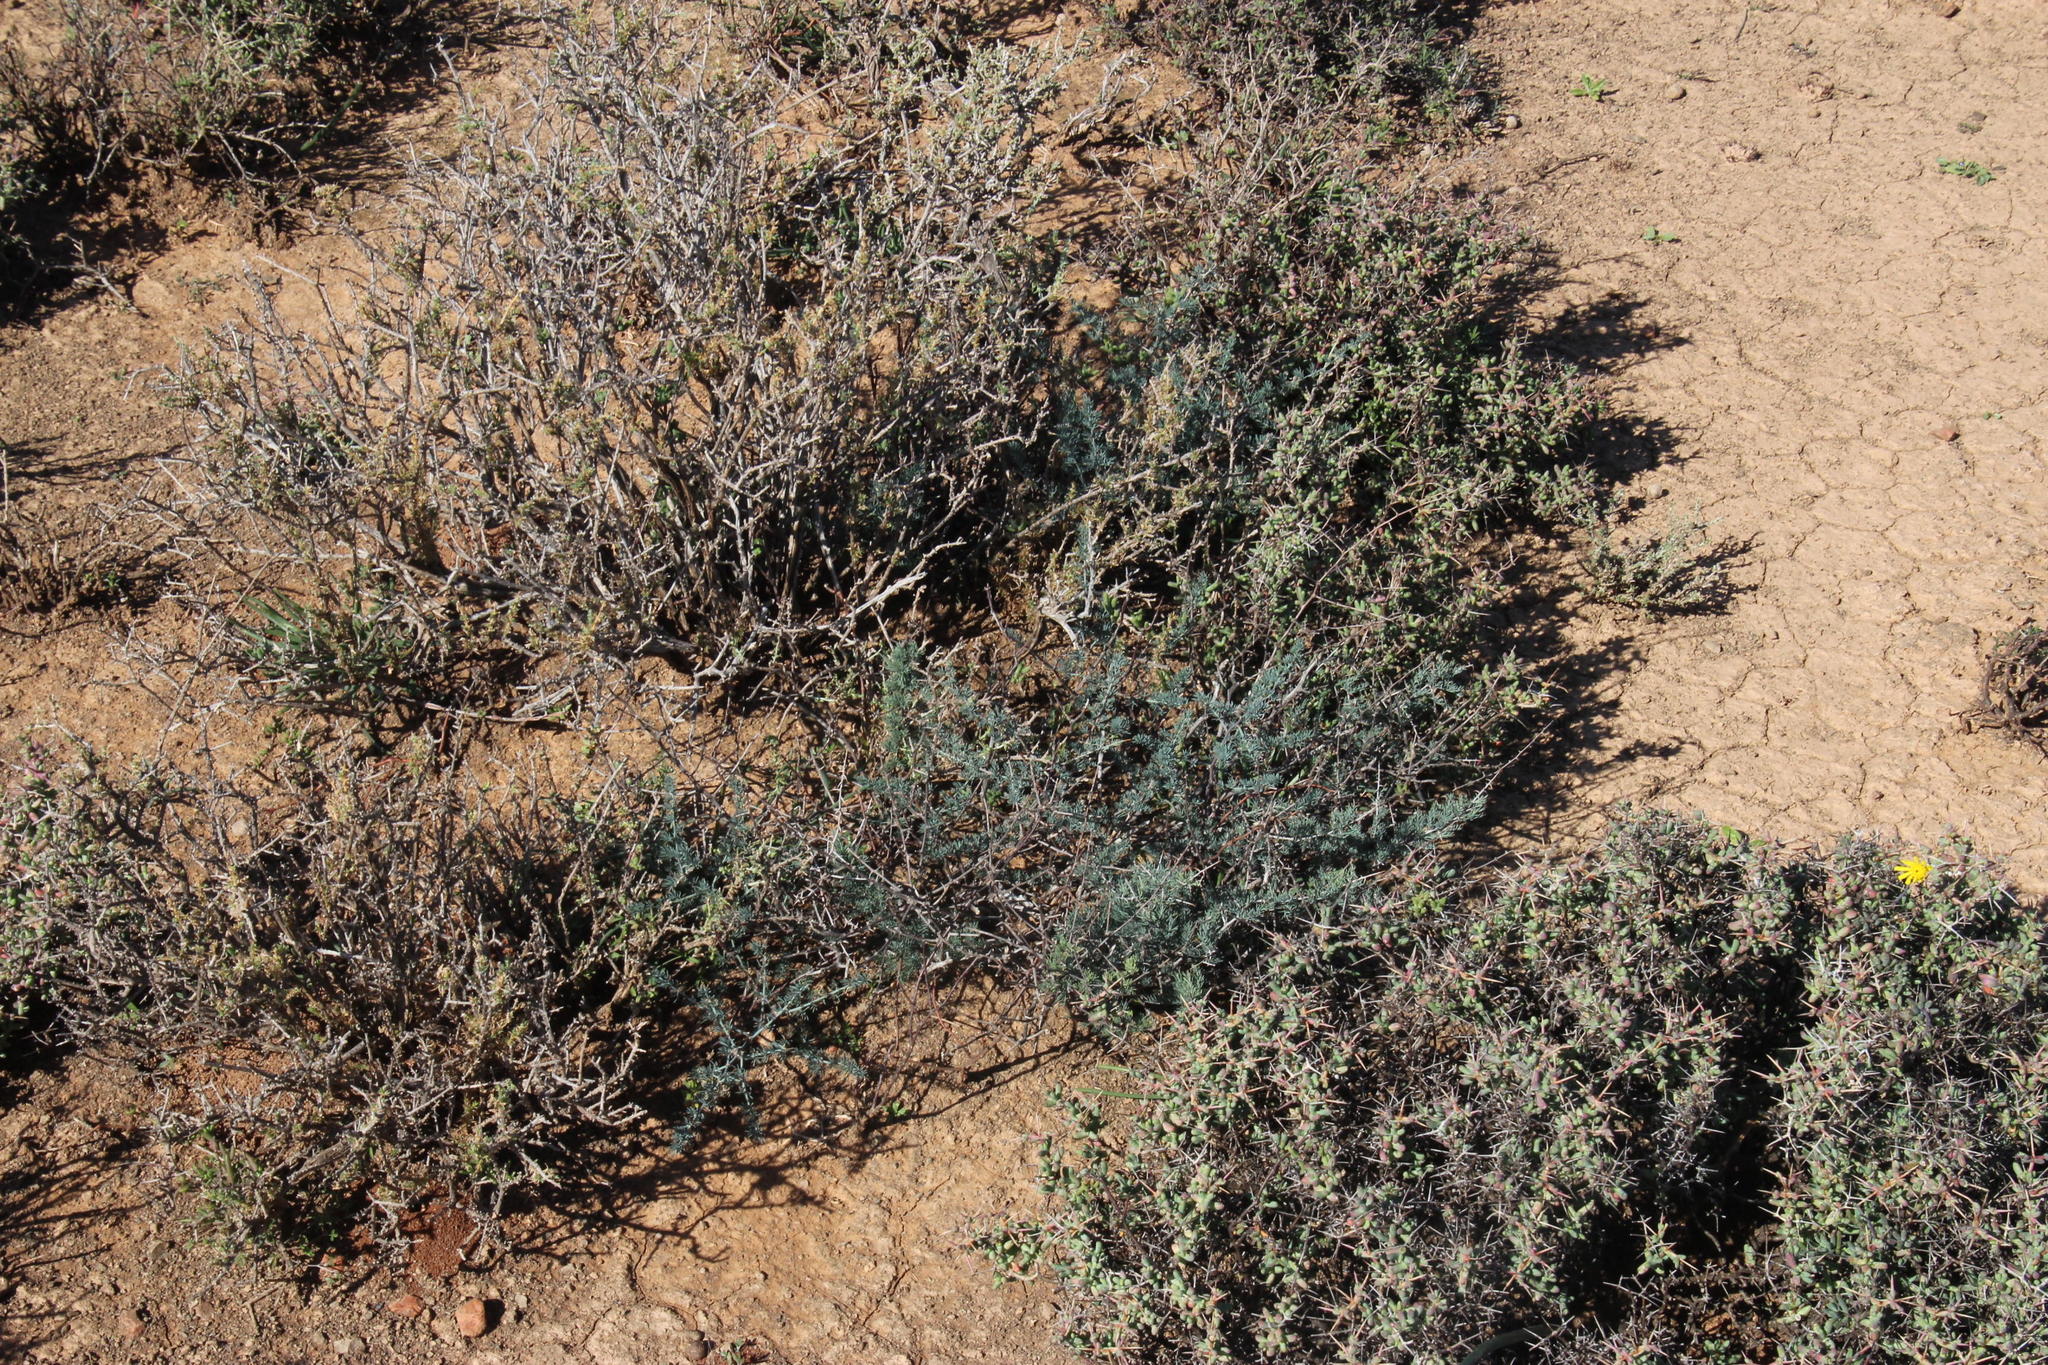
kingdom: Plantae
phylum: Tracheophyta
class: Liliopsida
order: Asparagales
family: Asparagaceae
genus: Asparagus
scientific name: Asparagus glaucus
